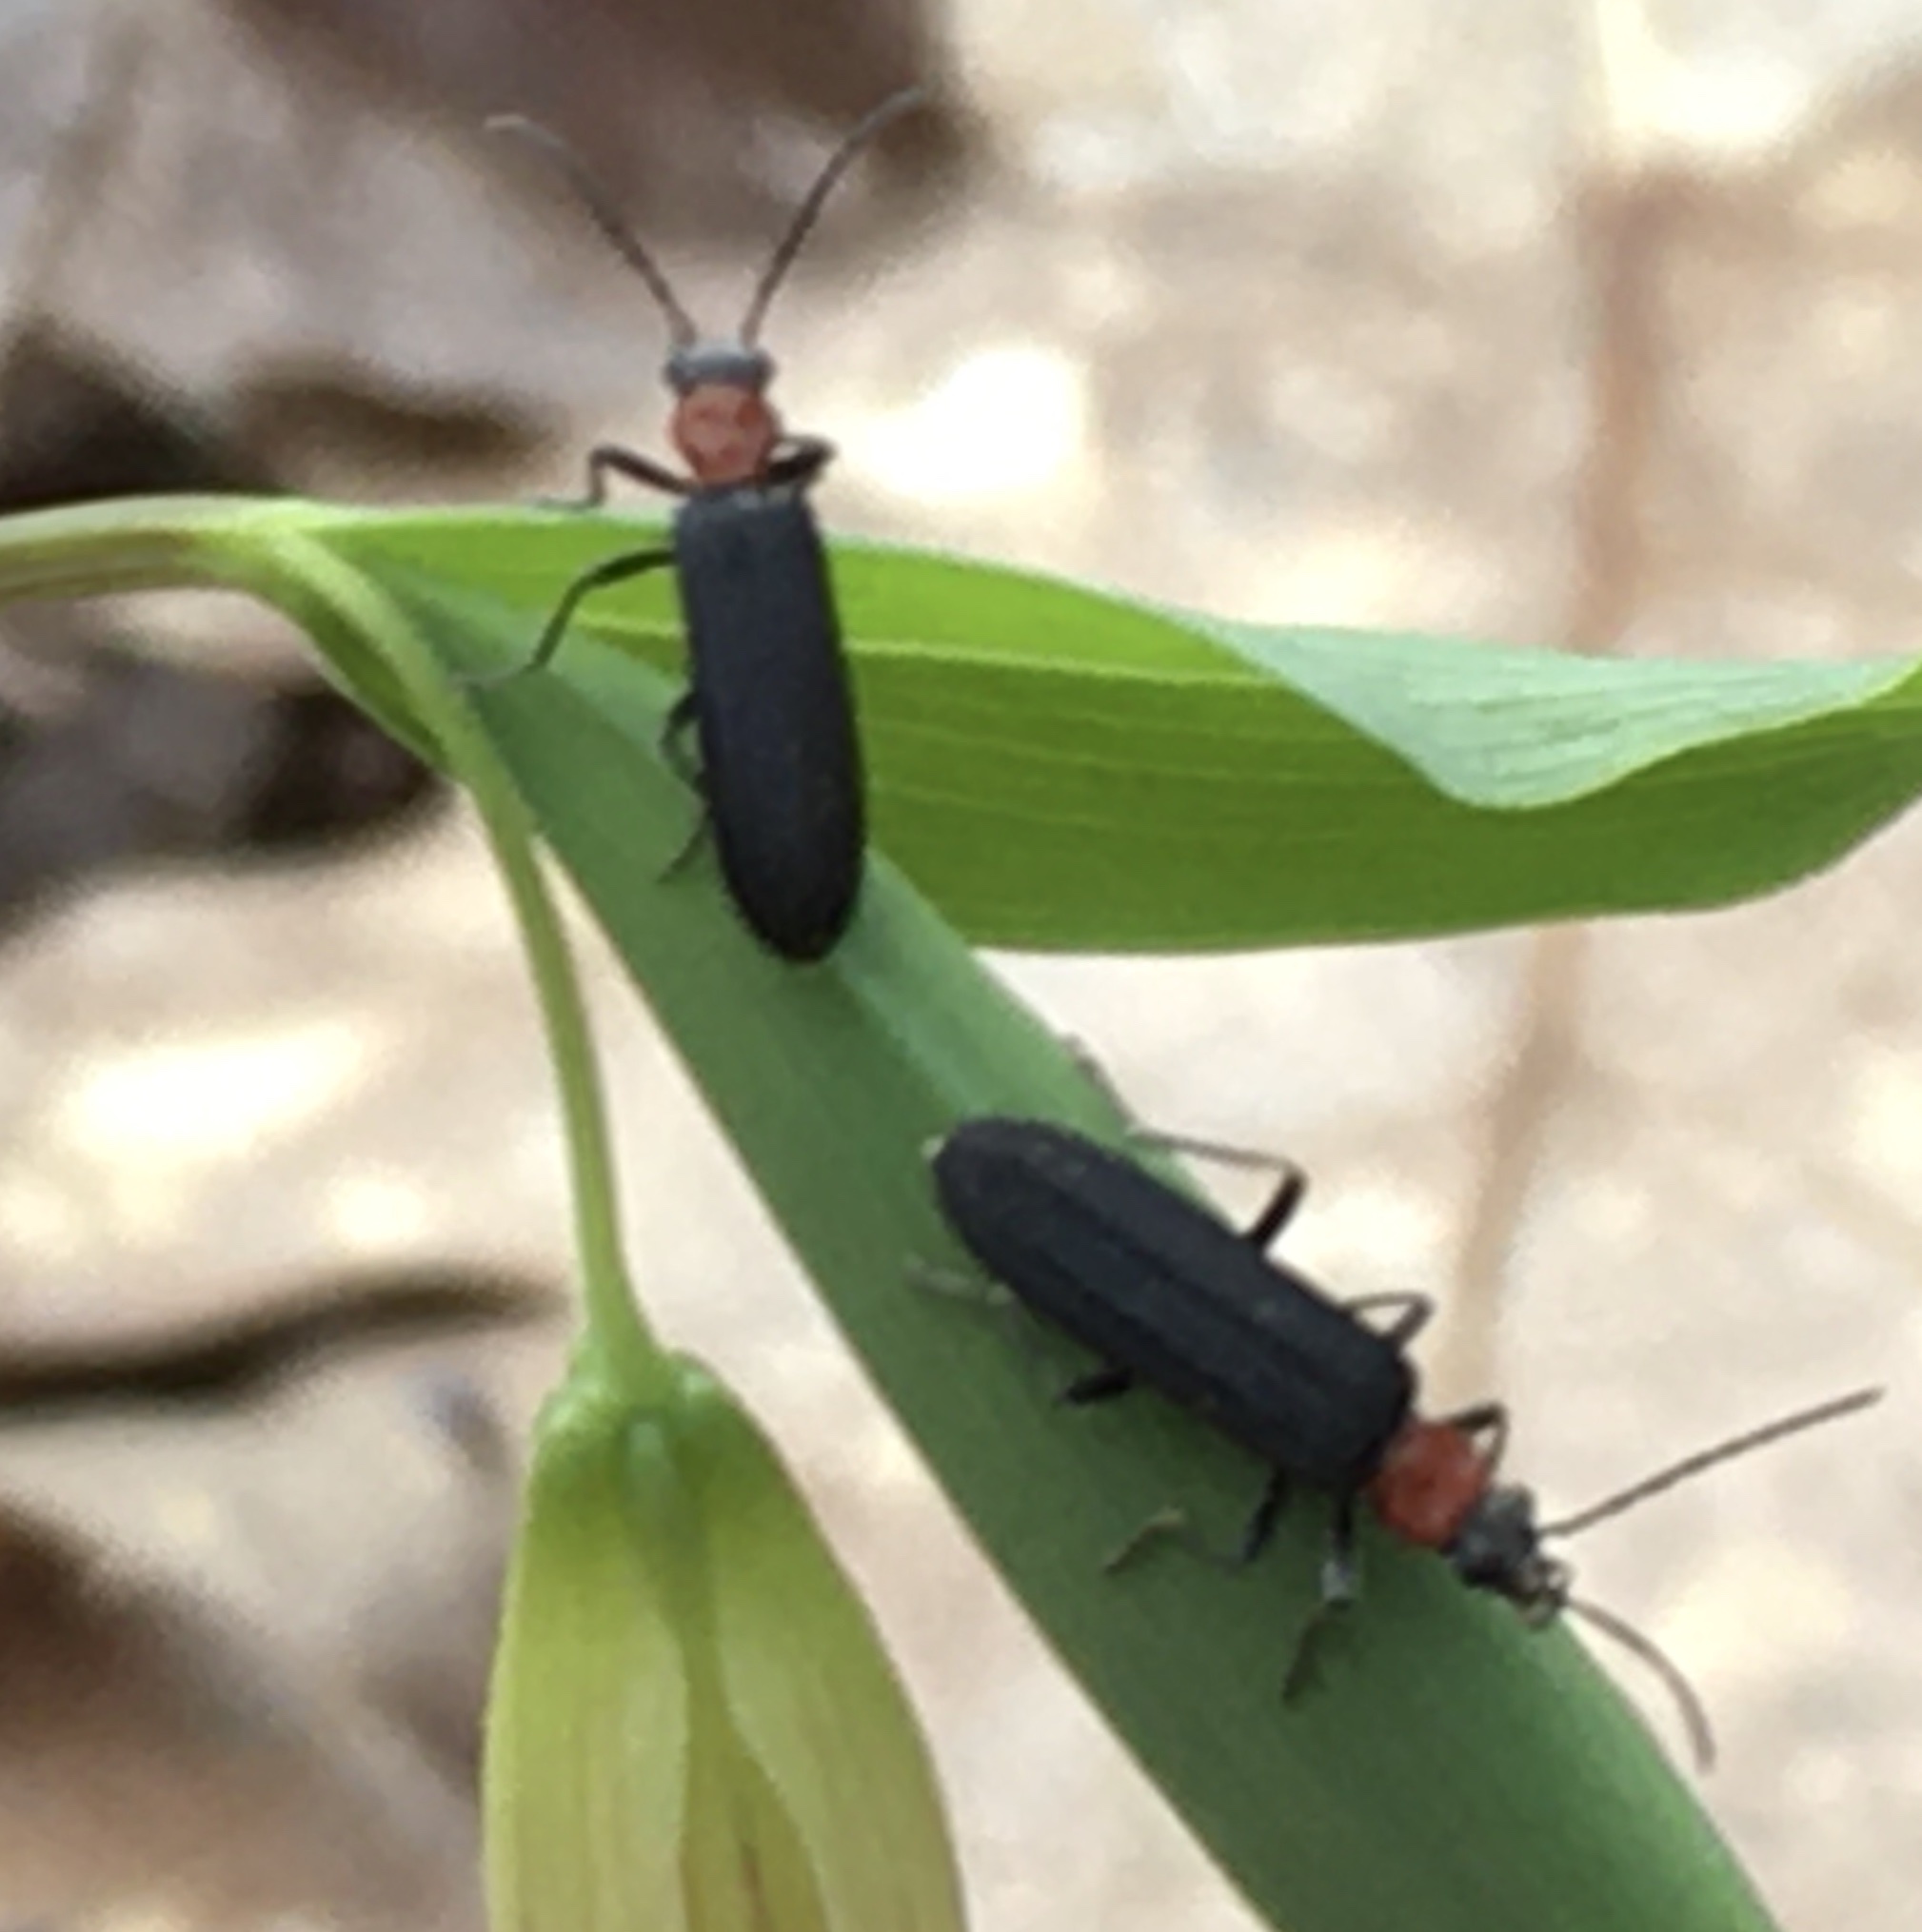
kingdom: Animalia
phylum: Arthropoda
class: Insecta
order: Coleoptera
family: Oedemeridae
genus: Ischnomera
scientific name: Ischnomera
